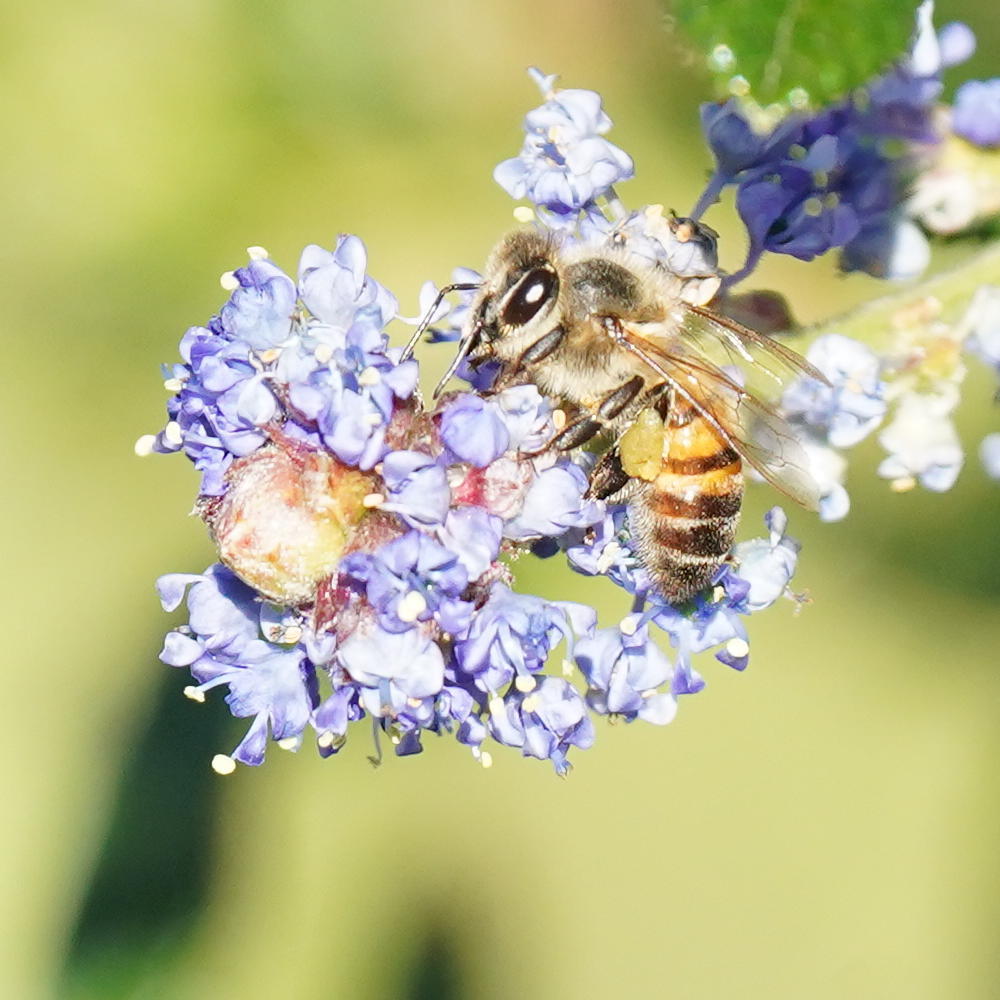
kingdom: Animalia
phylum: Arthropoda
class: Insecta
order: Hymenoptera
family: Apidae
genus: Apis
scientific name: Apis mellifera
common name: Honey bee
